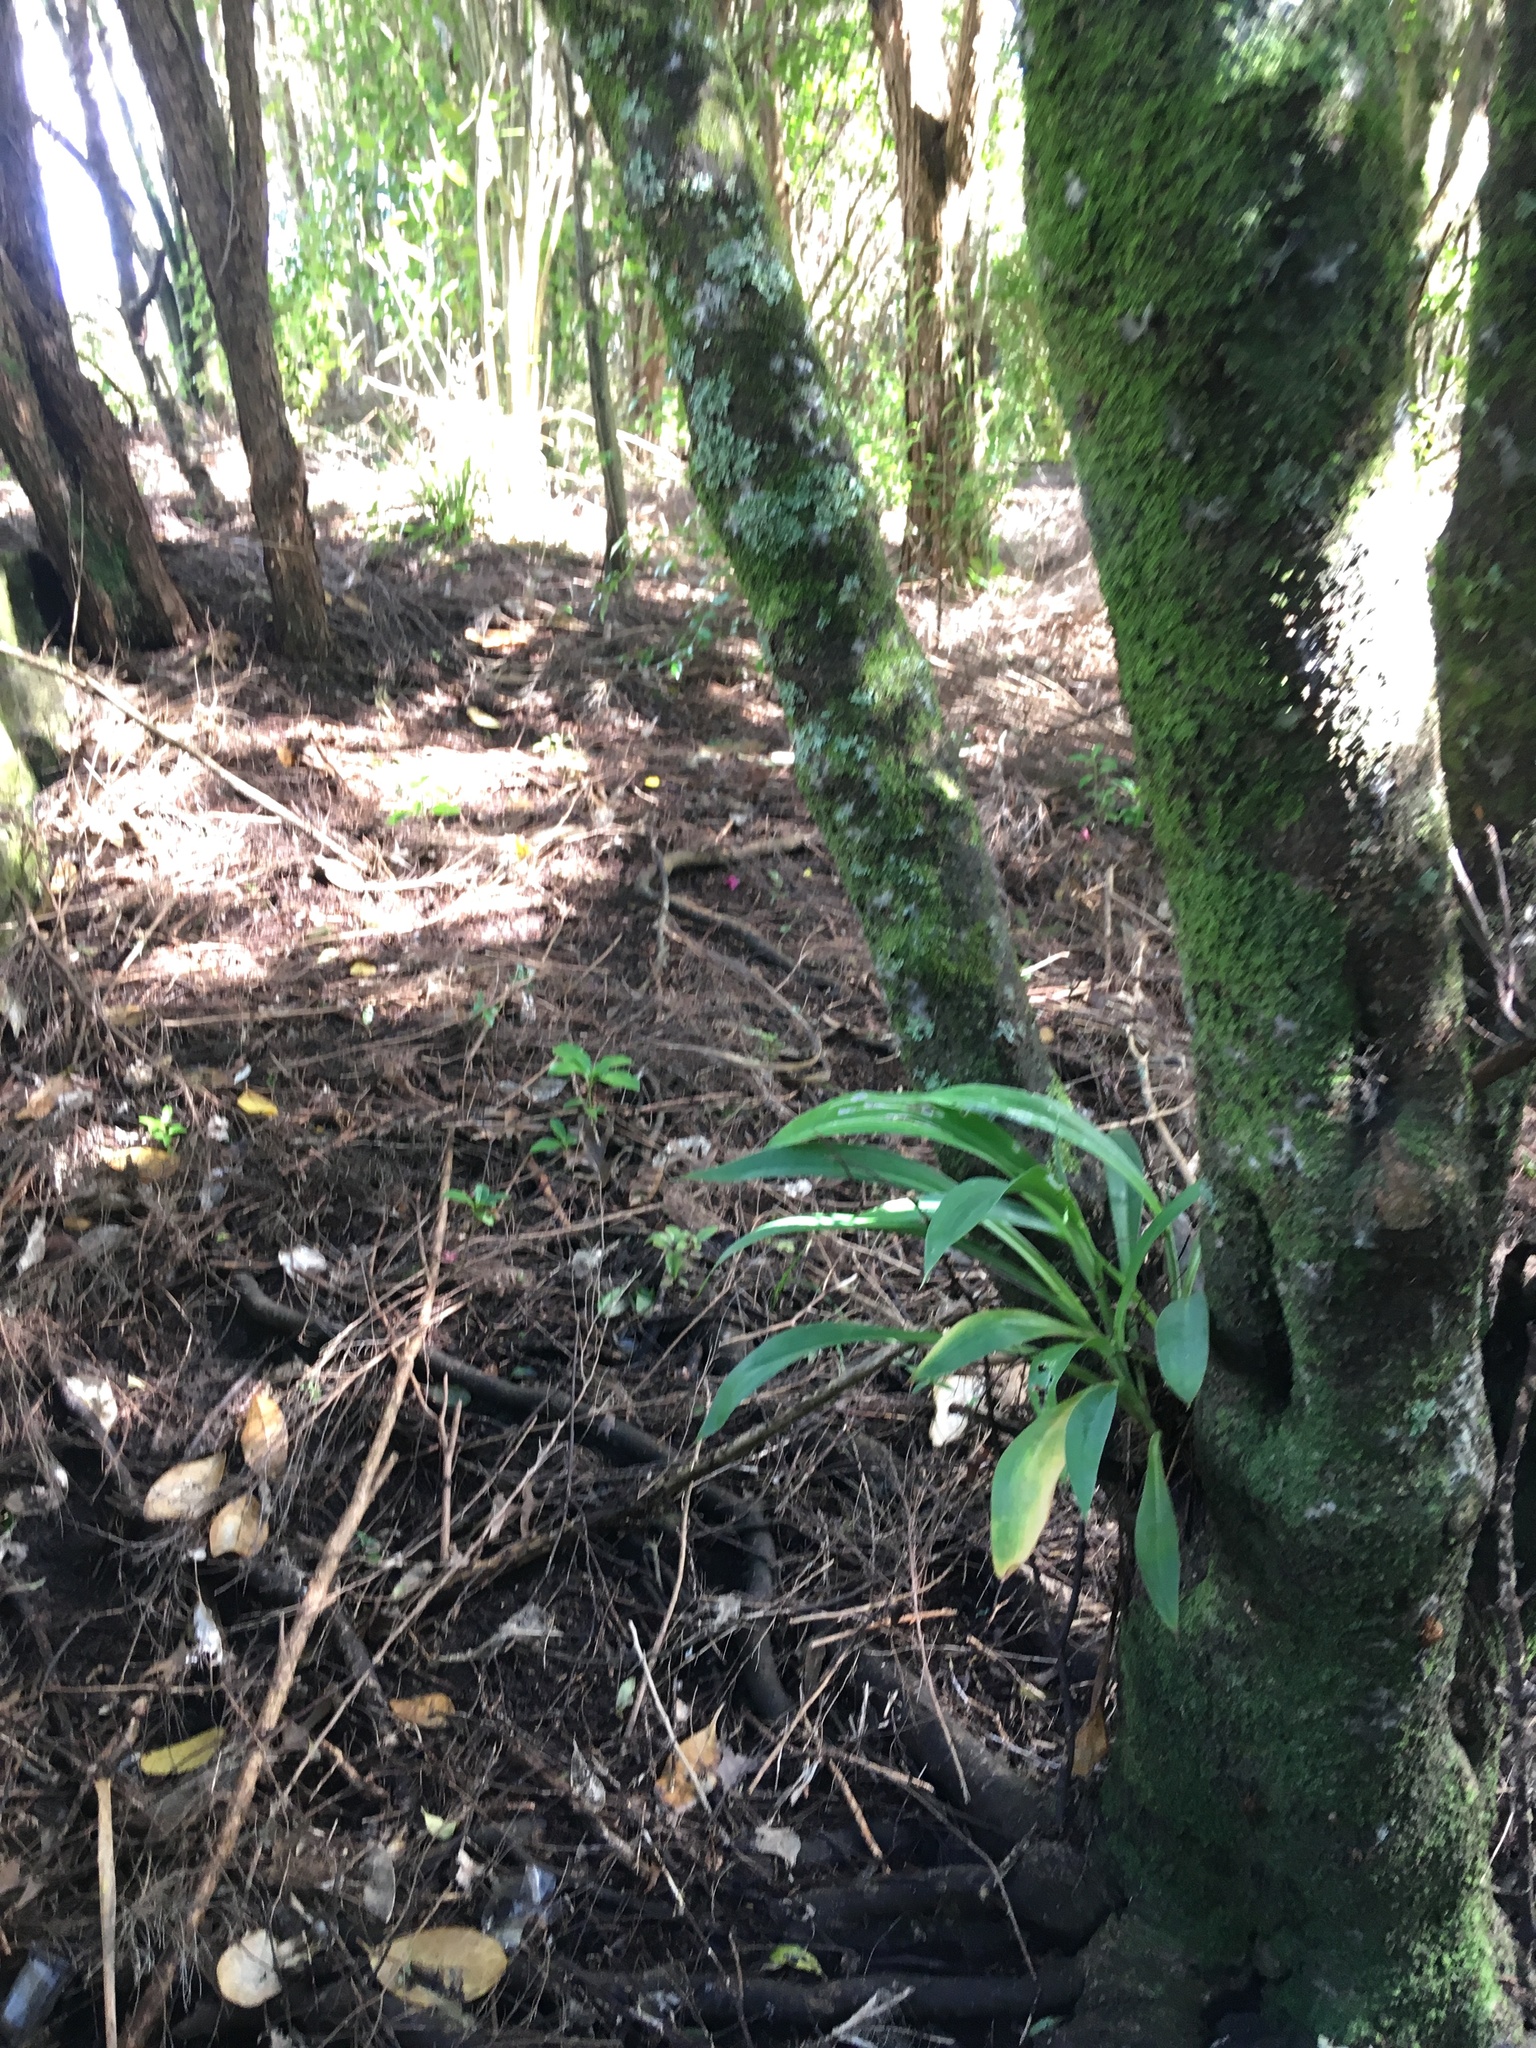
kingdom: Plantae
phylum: Tracheophyta
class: Liliopsida
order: Asparagales
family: Asparagaceae
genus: Arthropodium
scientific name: Arthropodium cirratum
